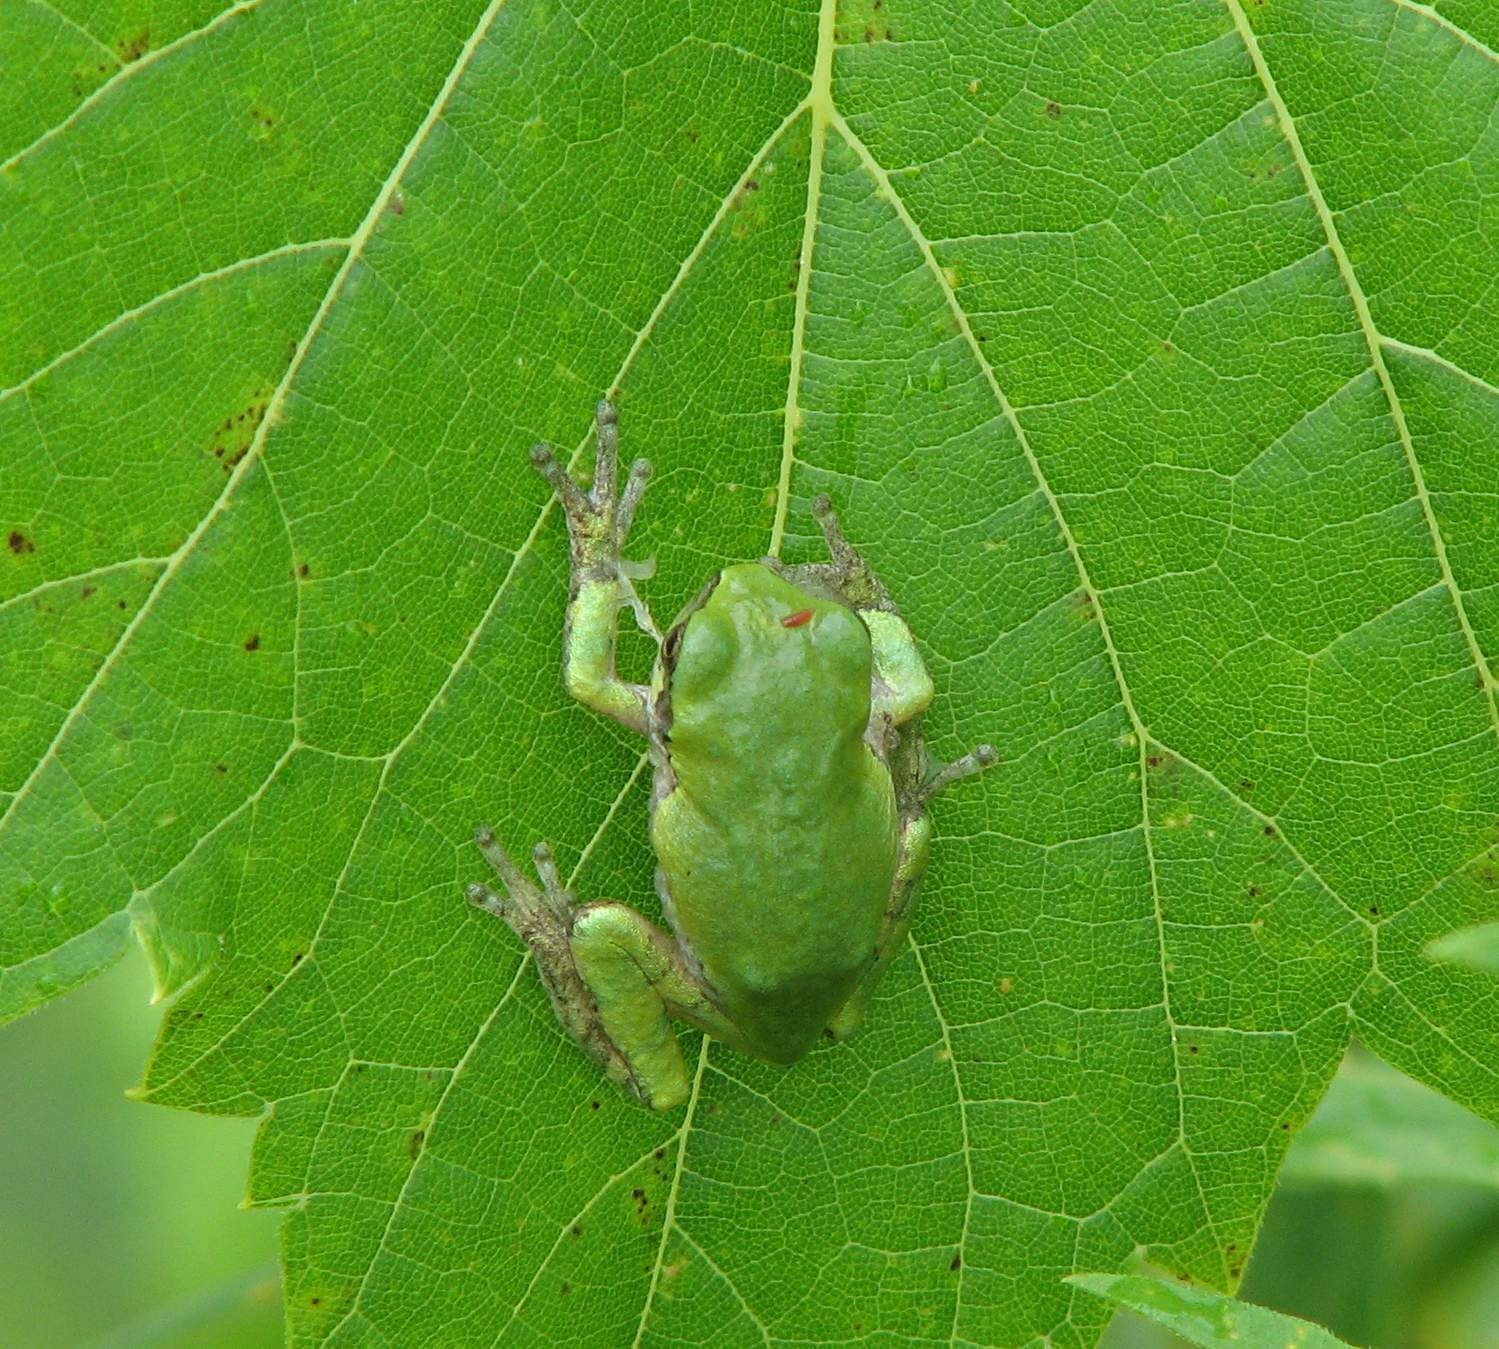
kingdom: Animalia
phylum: Chordata
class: Amphibia
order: Anura
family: Hylidae
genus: Dryophytes
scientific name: Dryophytes versicolor
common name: Gray treefrog
